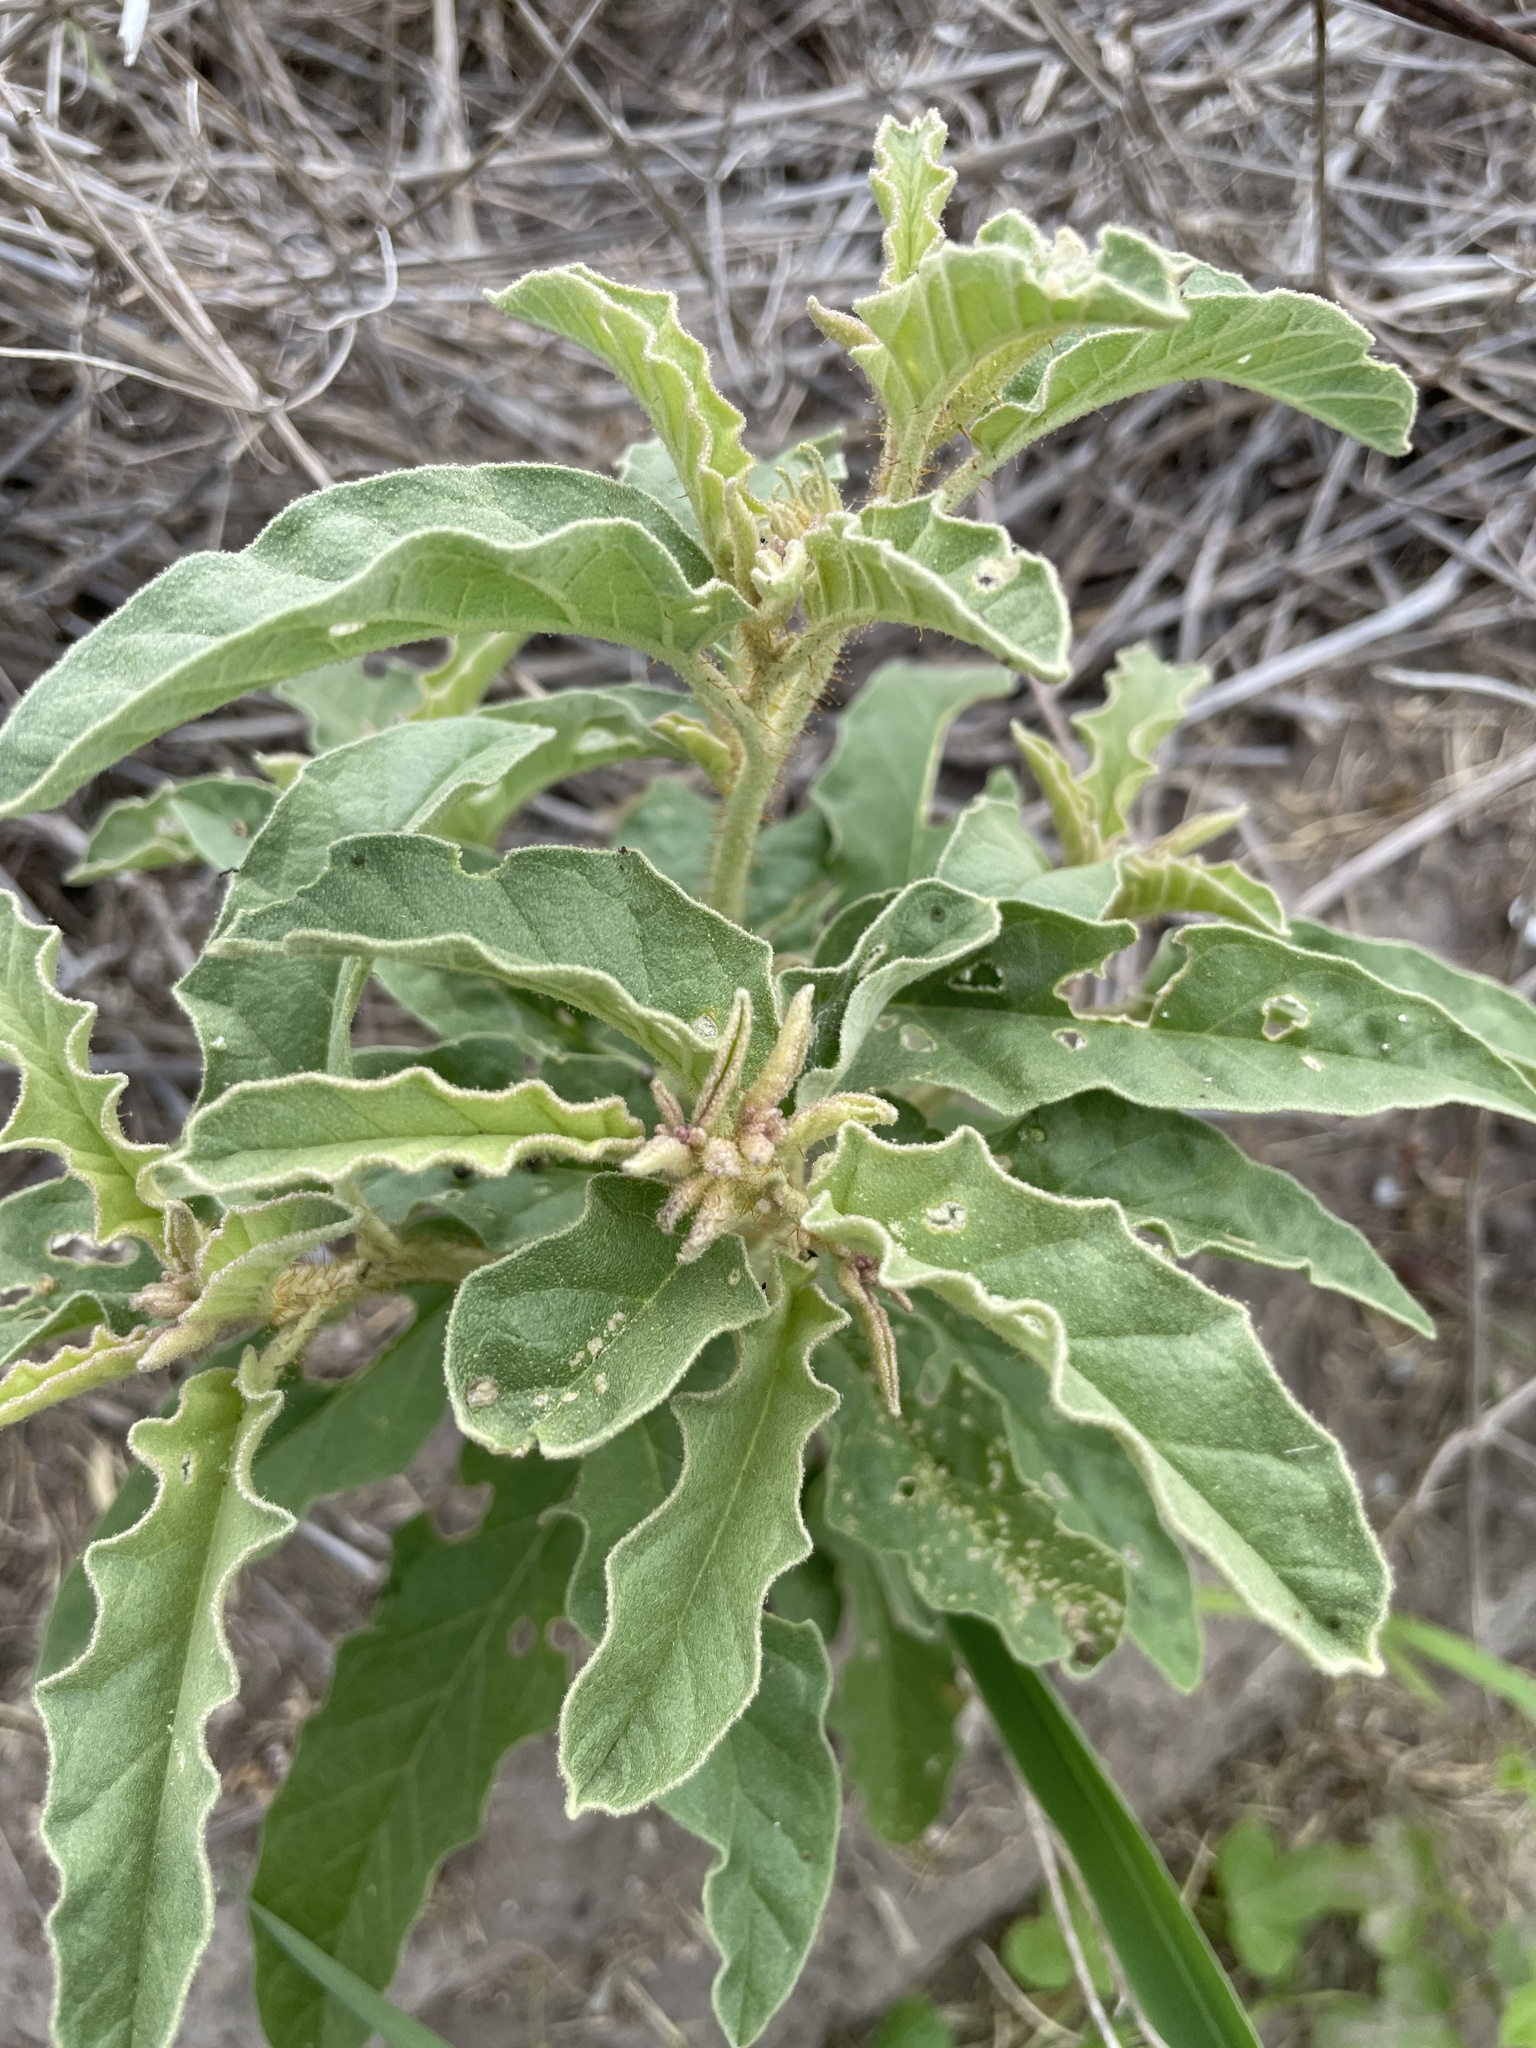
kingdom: Plantae
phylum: Tracheophyta
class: Magnoliopsida
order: Solanales
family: Solanaceae
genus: Solanum
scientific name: Solanum elaeagnifolium
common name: Silverleaf nightshade
